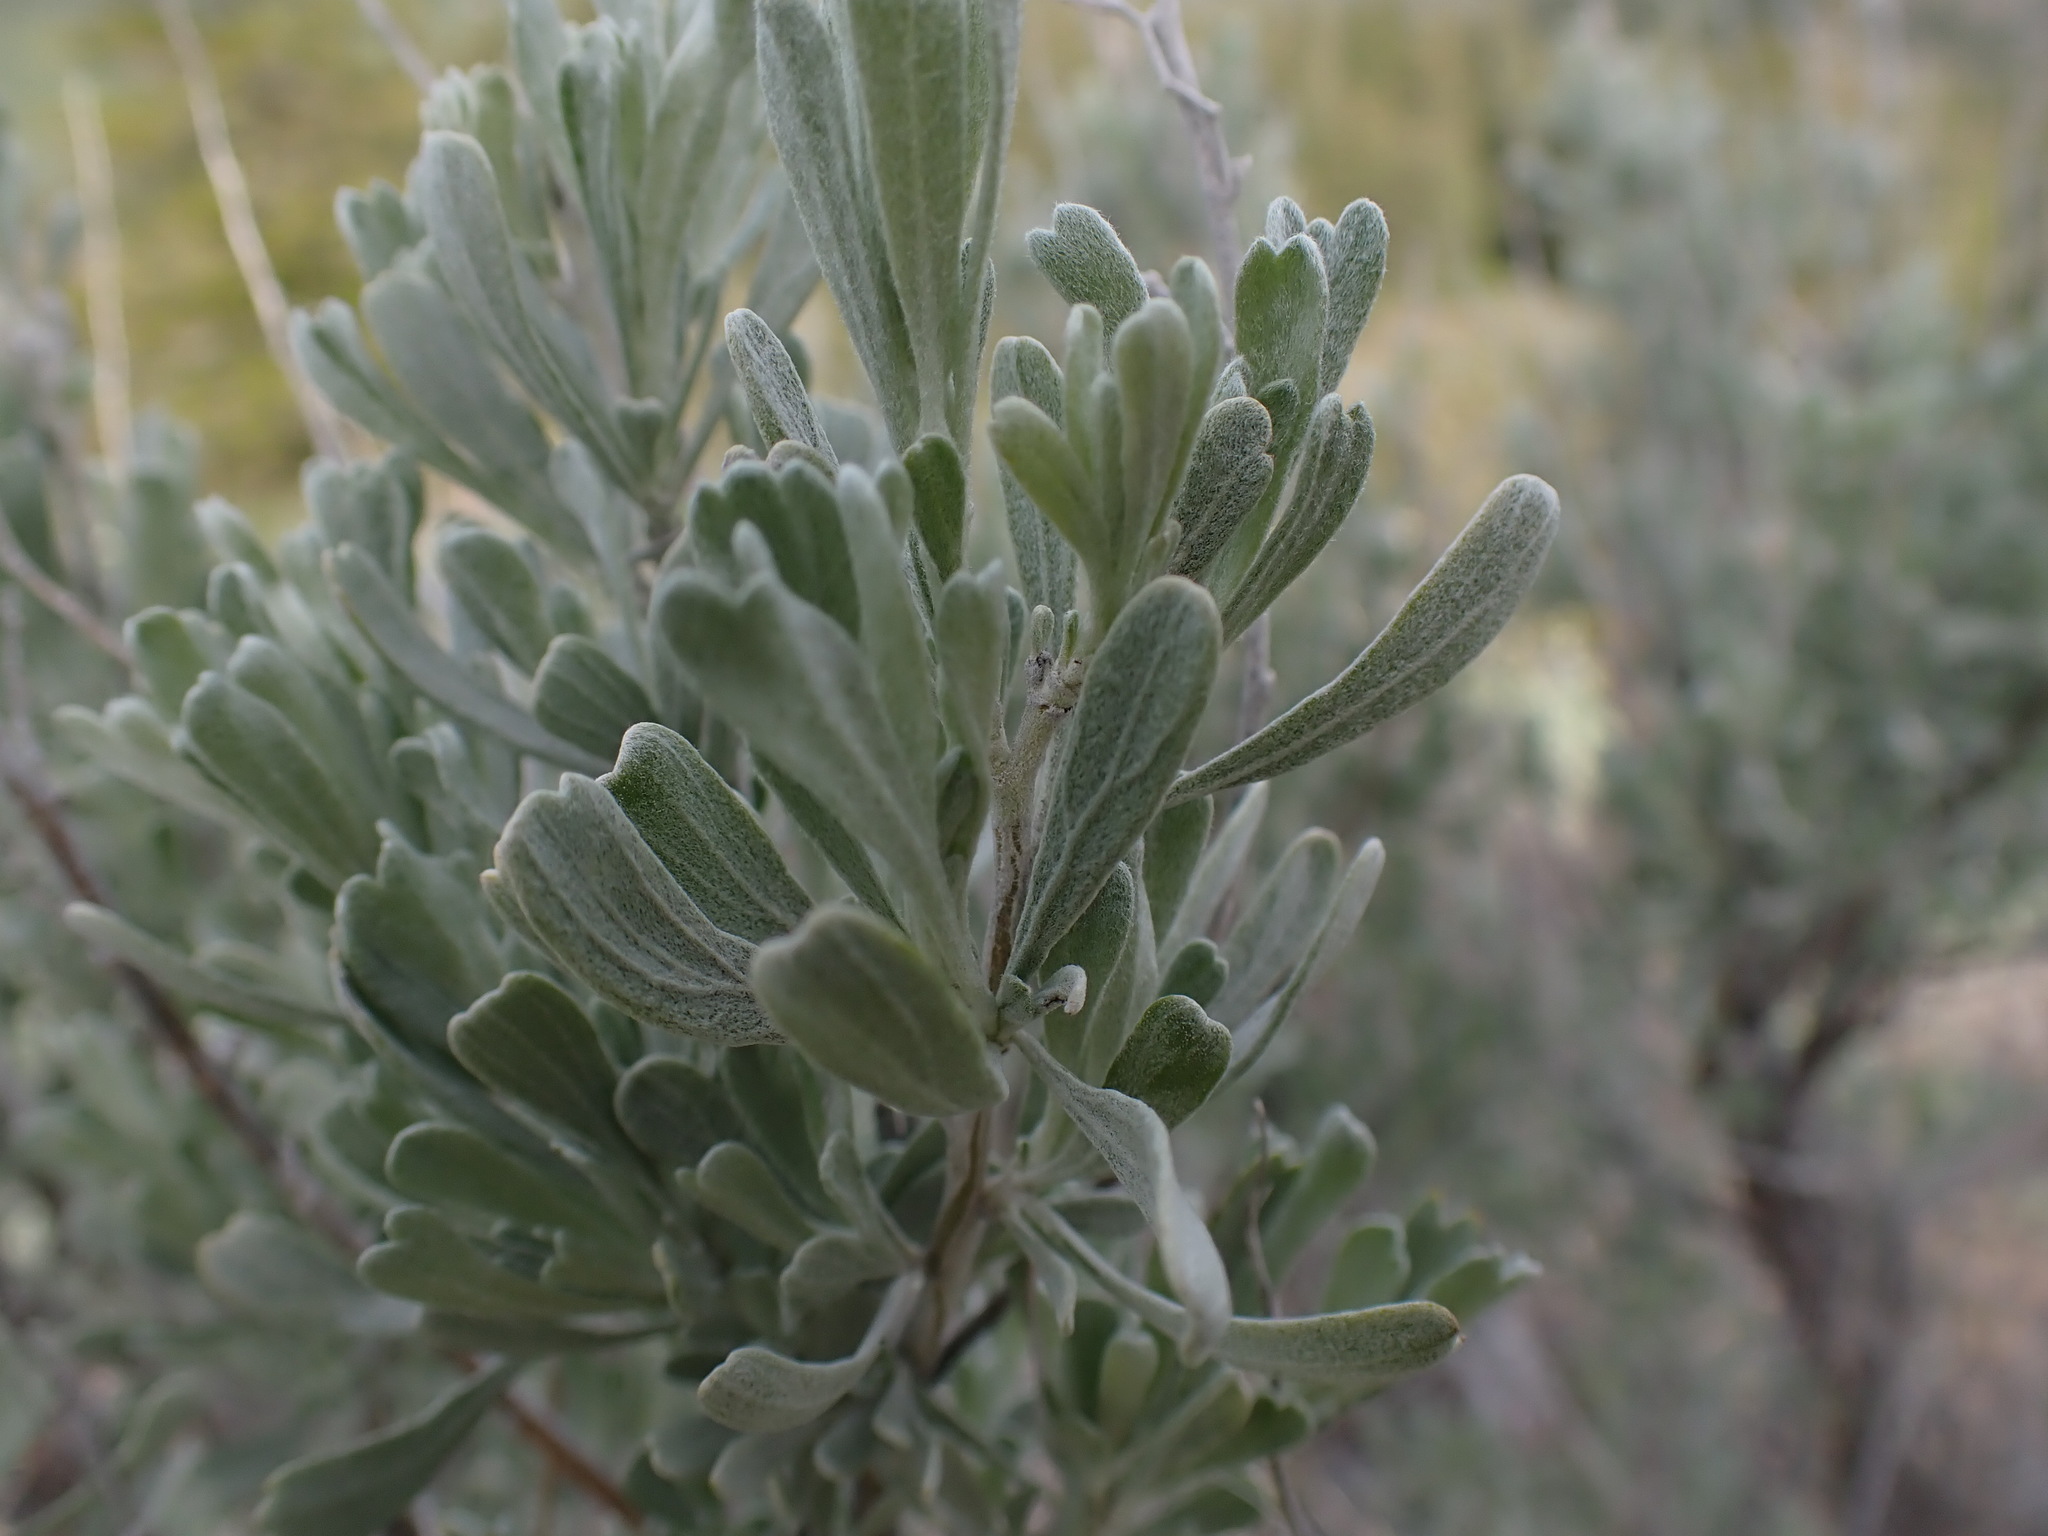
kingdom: Plantae
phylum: Tracheophyta
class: Magnoliopsida
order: Asterales
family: Asteraceae
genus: Artemisia
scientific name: Artemisia tridentata
